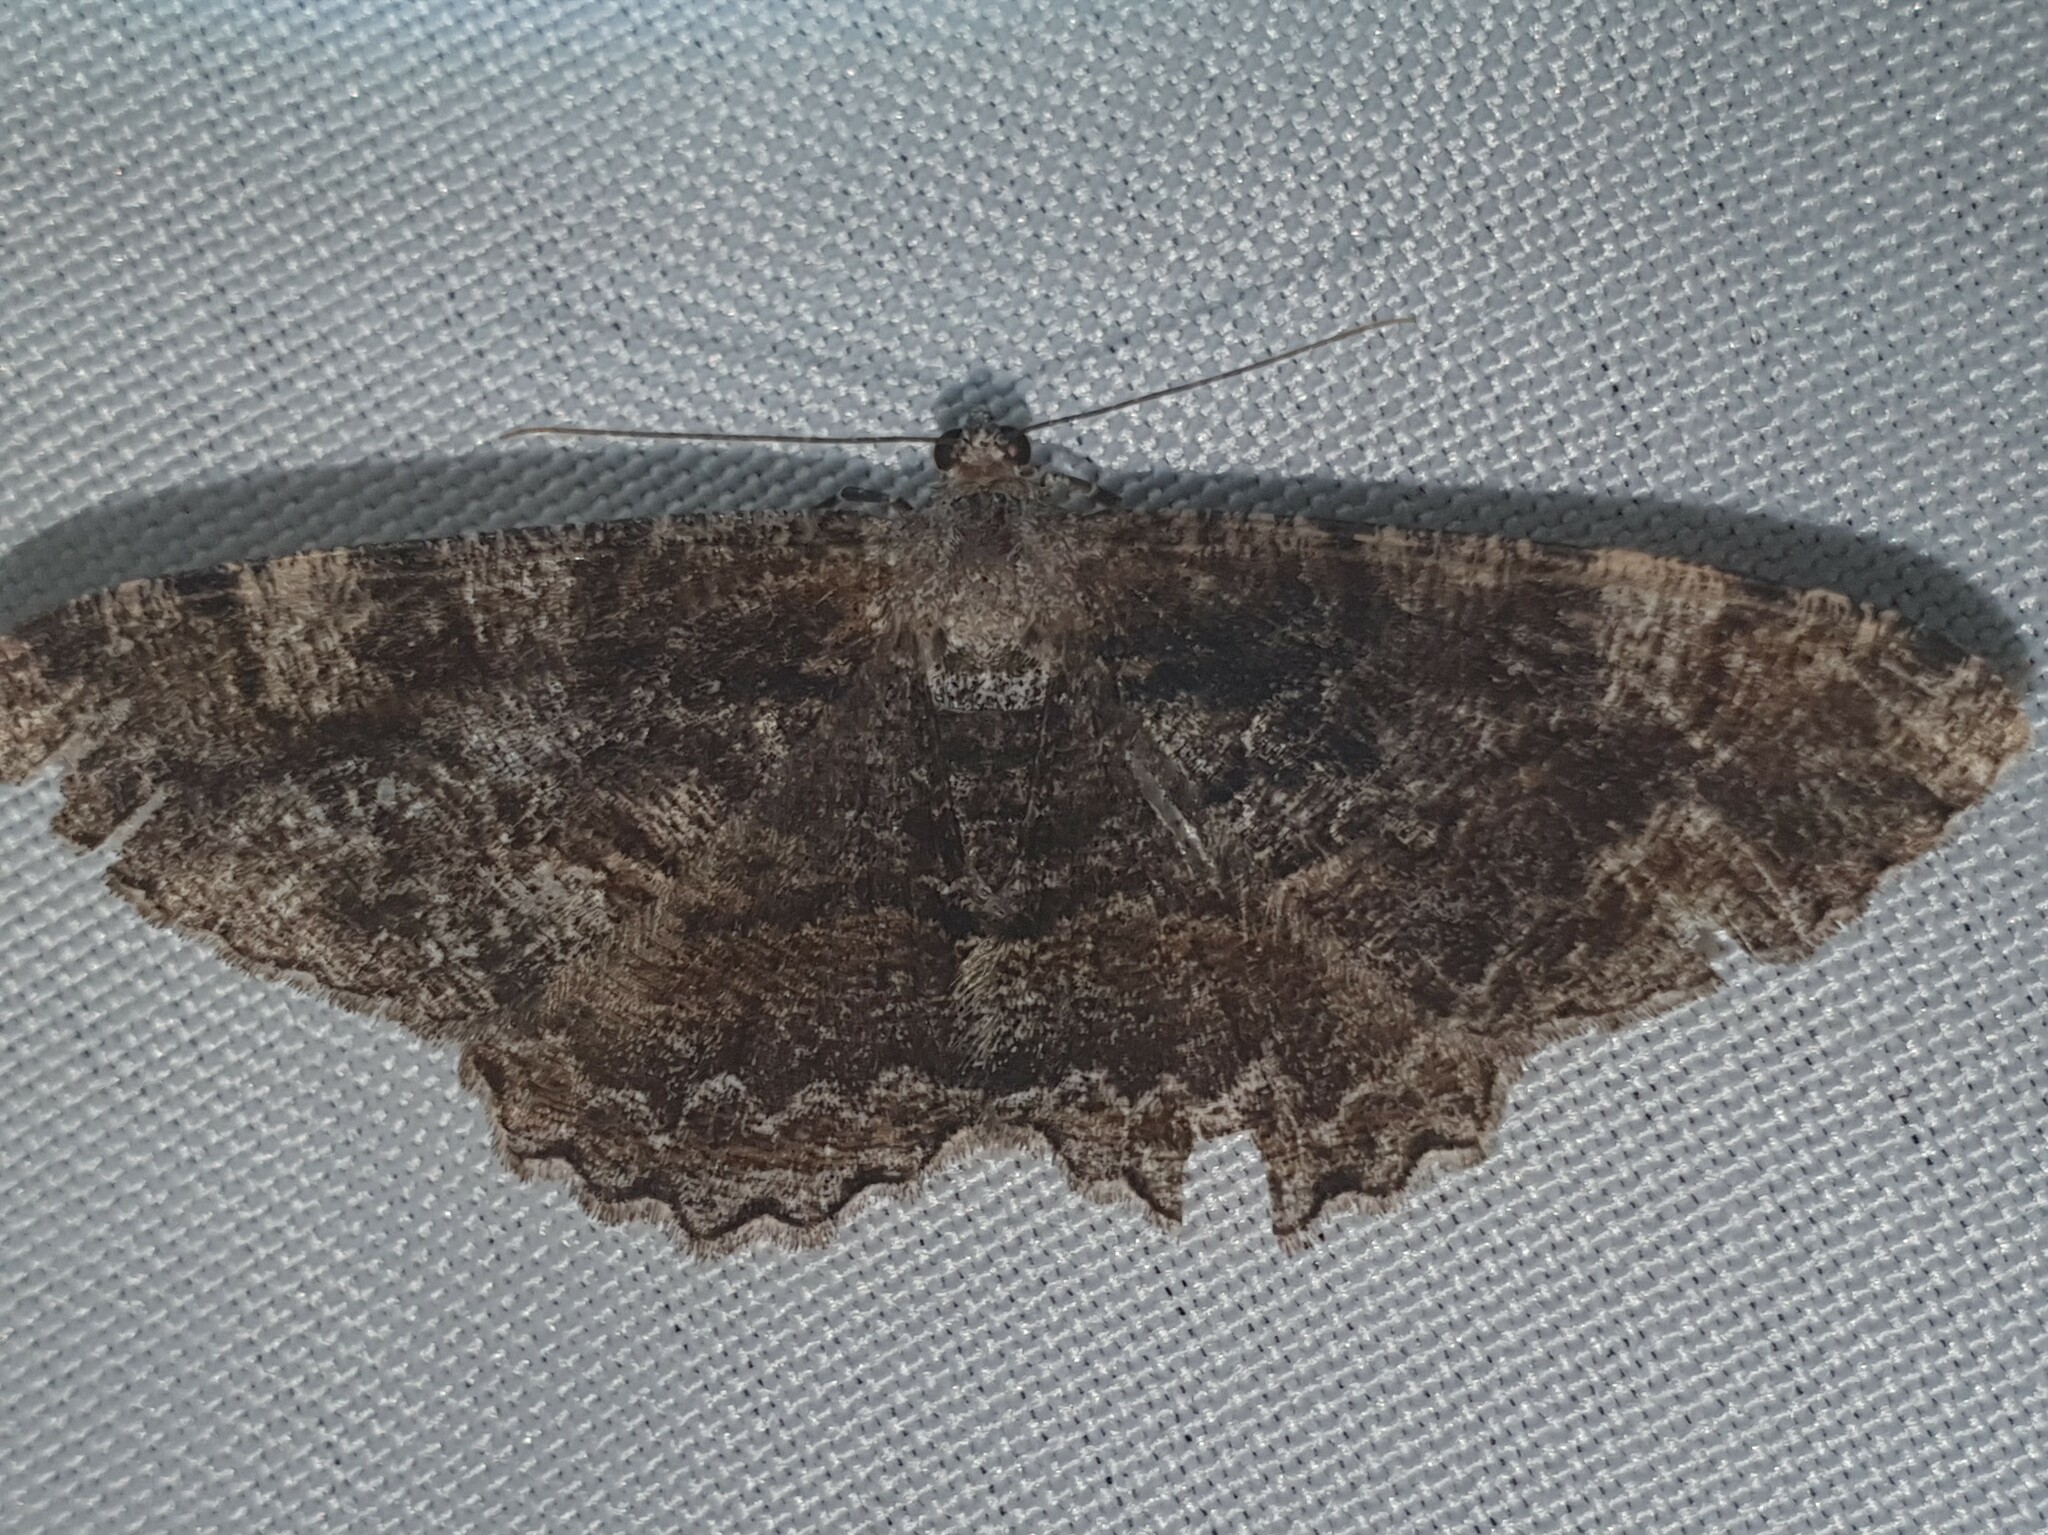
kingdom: Animalia
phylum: Arthropoda
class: Insecta
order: Lepidoptera
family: Geometridae
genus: Alcis
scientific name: Alcis repandata
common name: Mottled beauty
